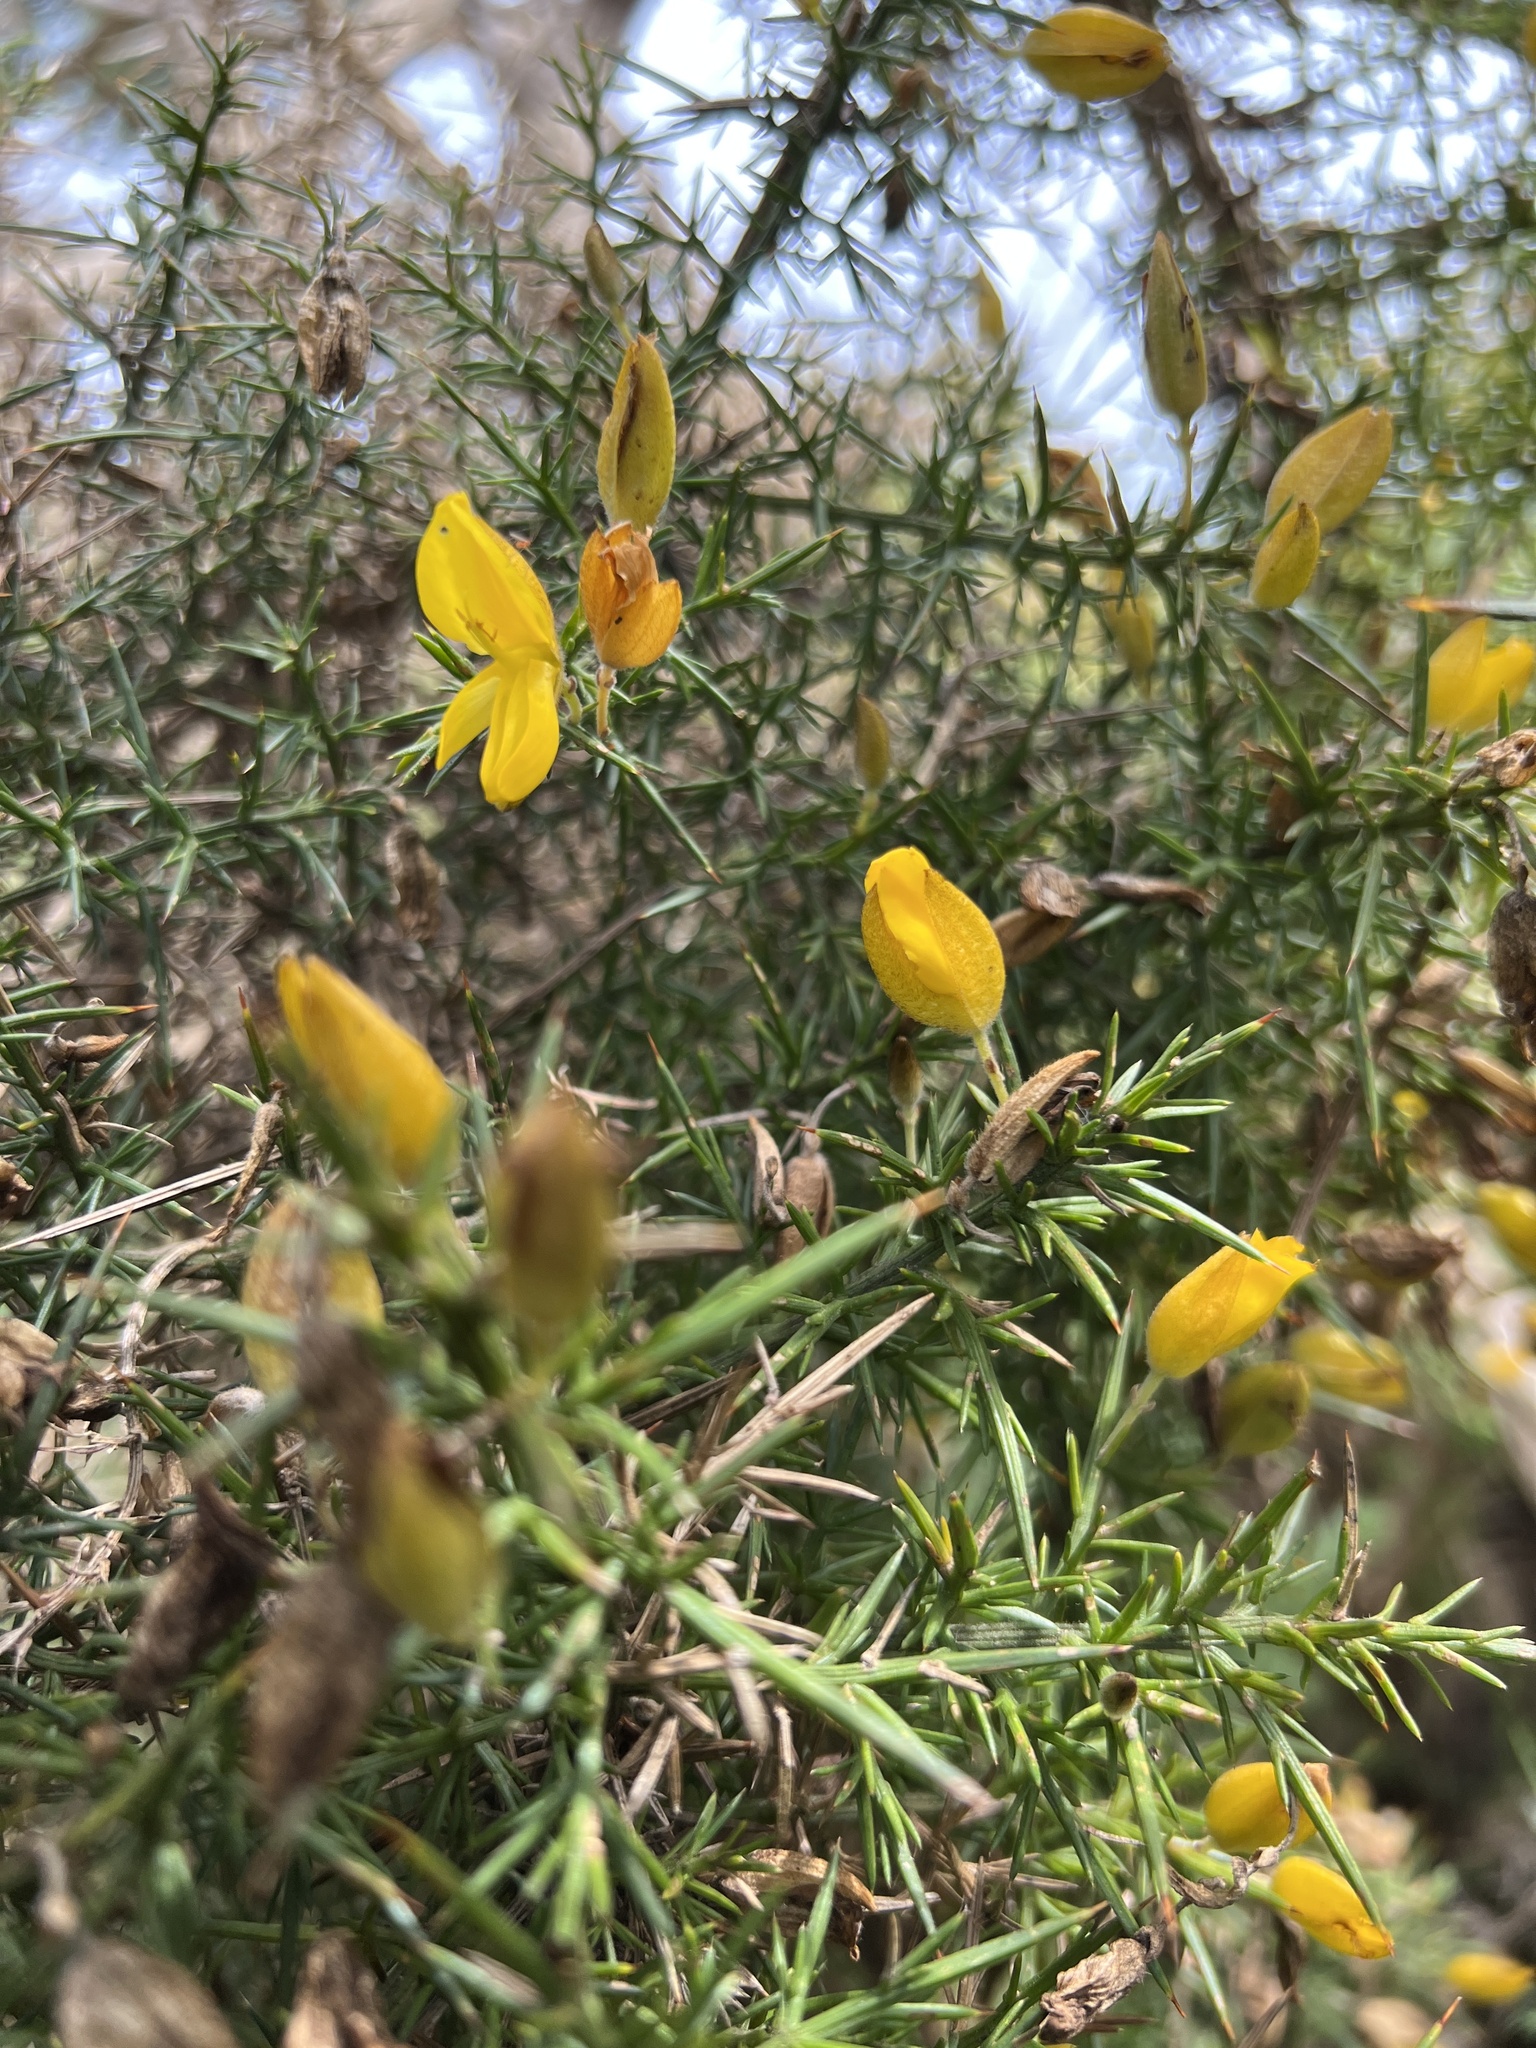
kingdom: Plantae
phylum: Tracheophyta
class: Magnoliopsida
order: Fabales
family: Fabaceae
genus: Ulex
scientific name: Ulex europaeus
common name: Common gorse
